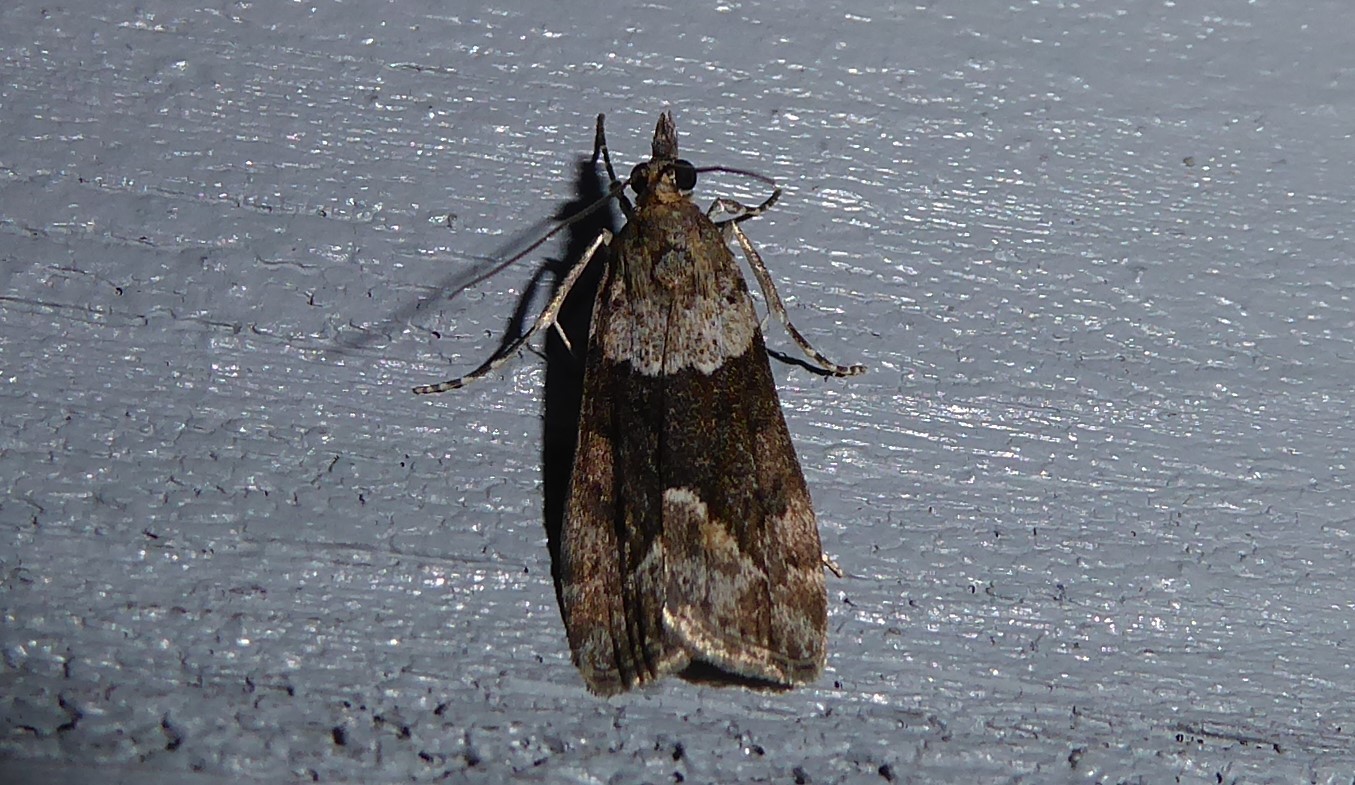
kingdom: Animalia
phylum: Arthropoda
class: Insecta
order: Lepidoptera
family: Crambidae
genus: Eudonia
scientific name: Eudonia submarginalis
